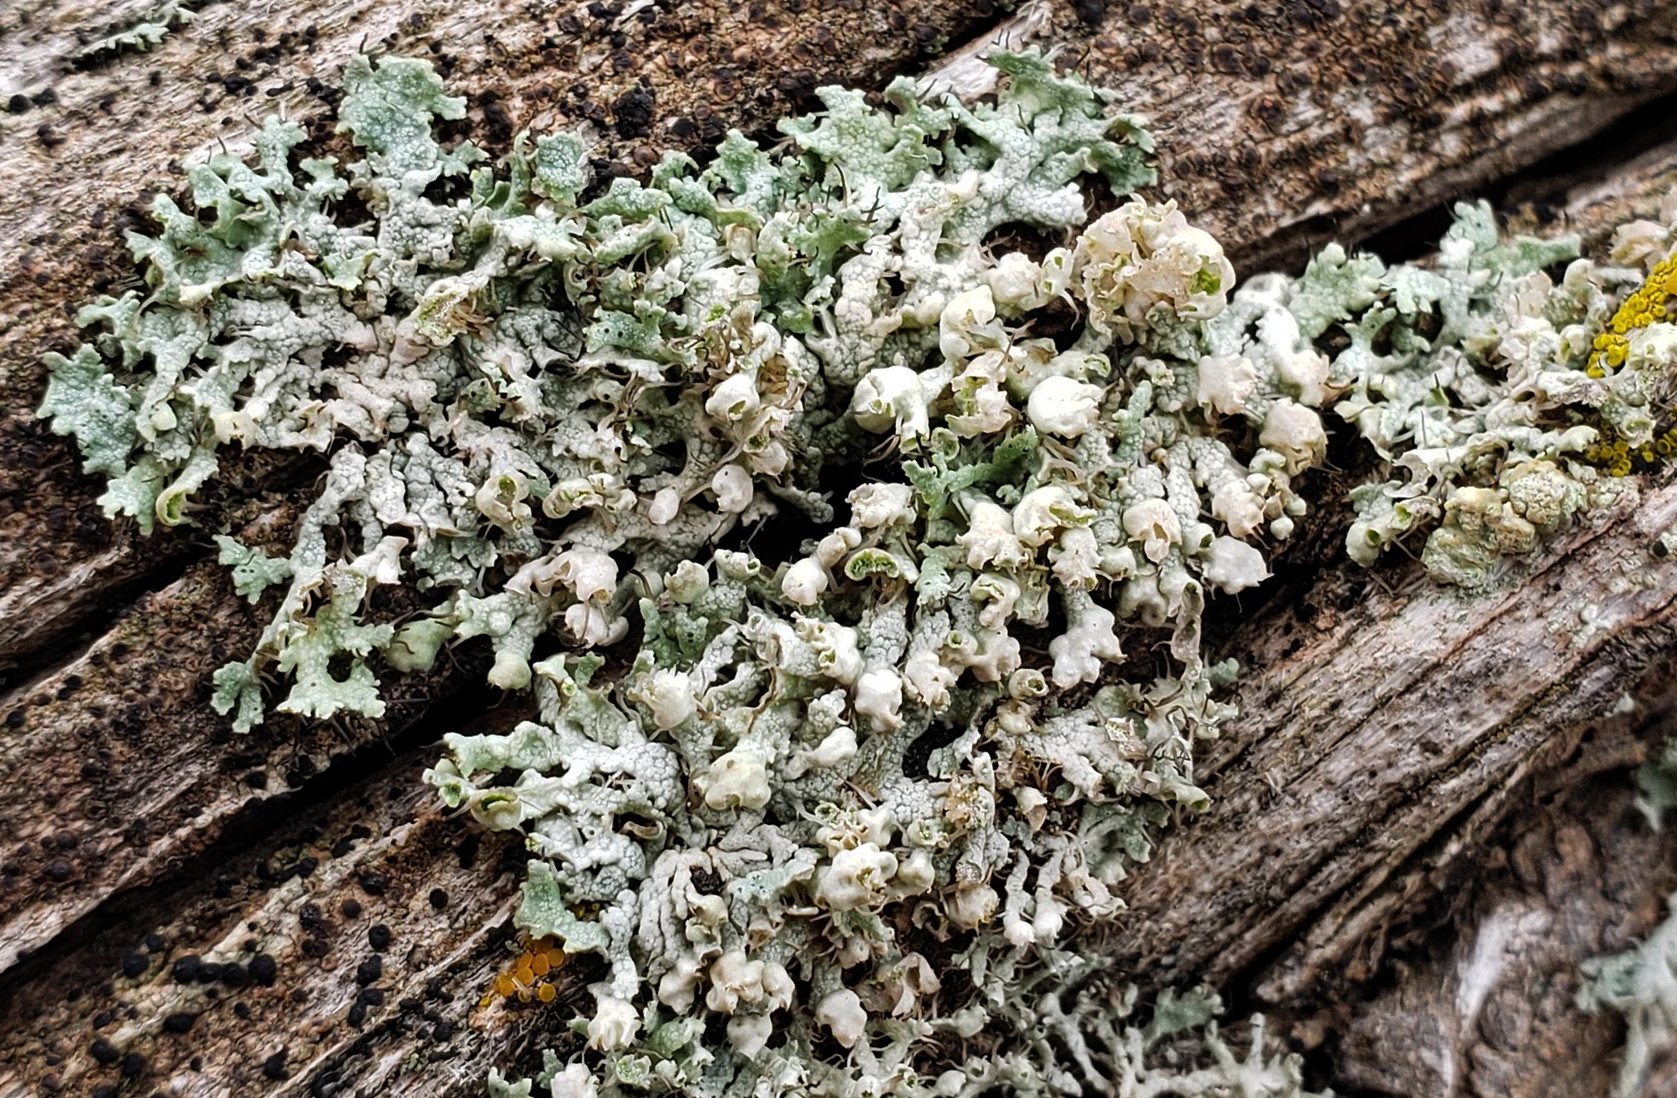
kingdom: Fungi
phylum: Ascomycota
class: Lecanoromycetes
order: Caliciales
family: Physciaceae
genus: Physcia
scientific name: Physcia adscendens
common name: Hooded rosette lichen
